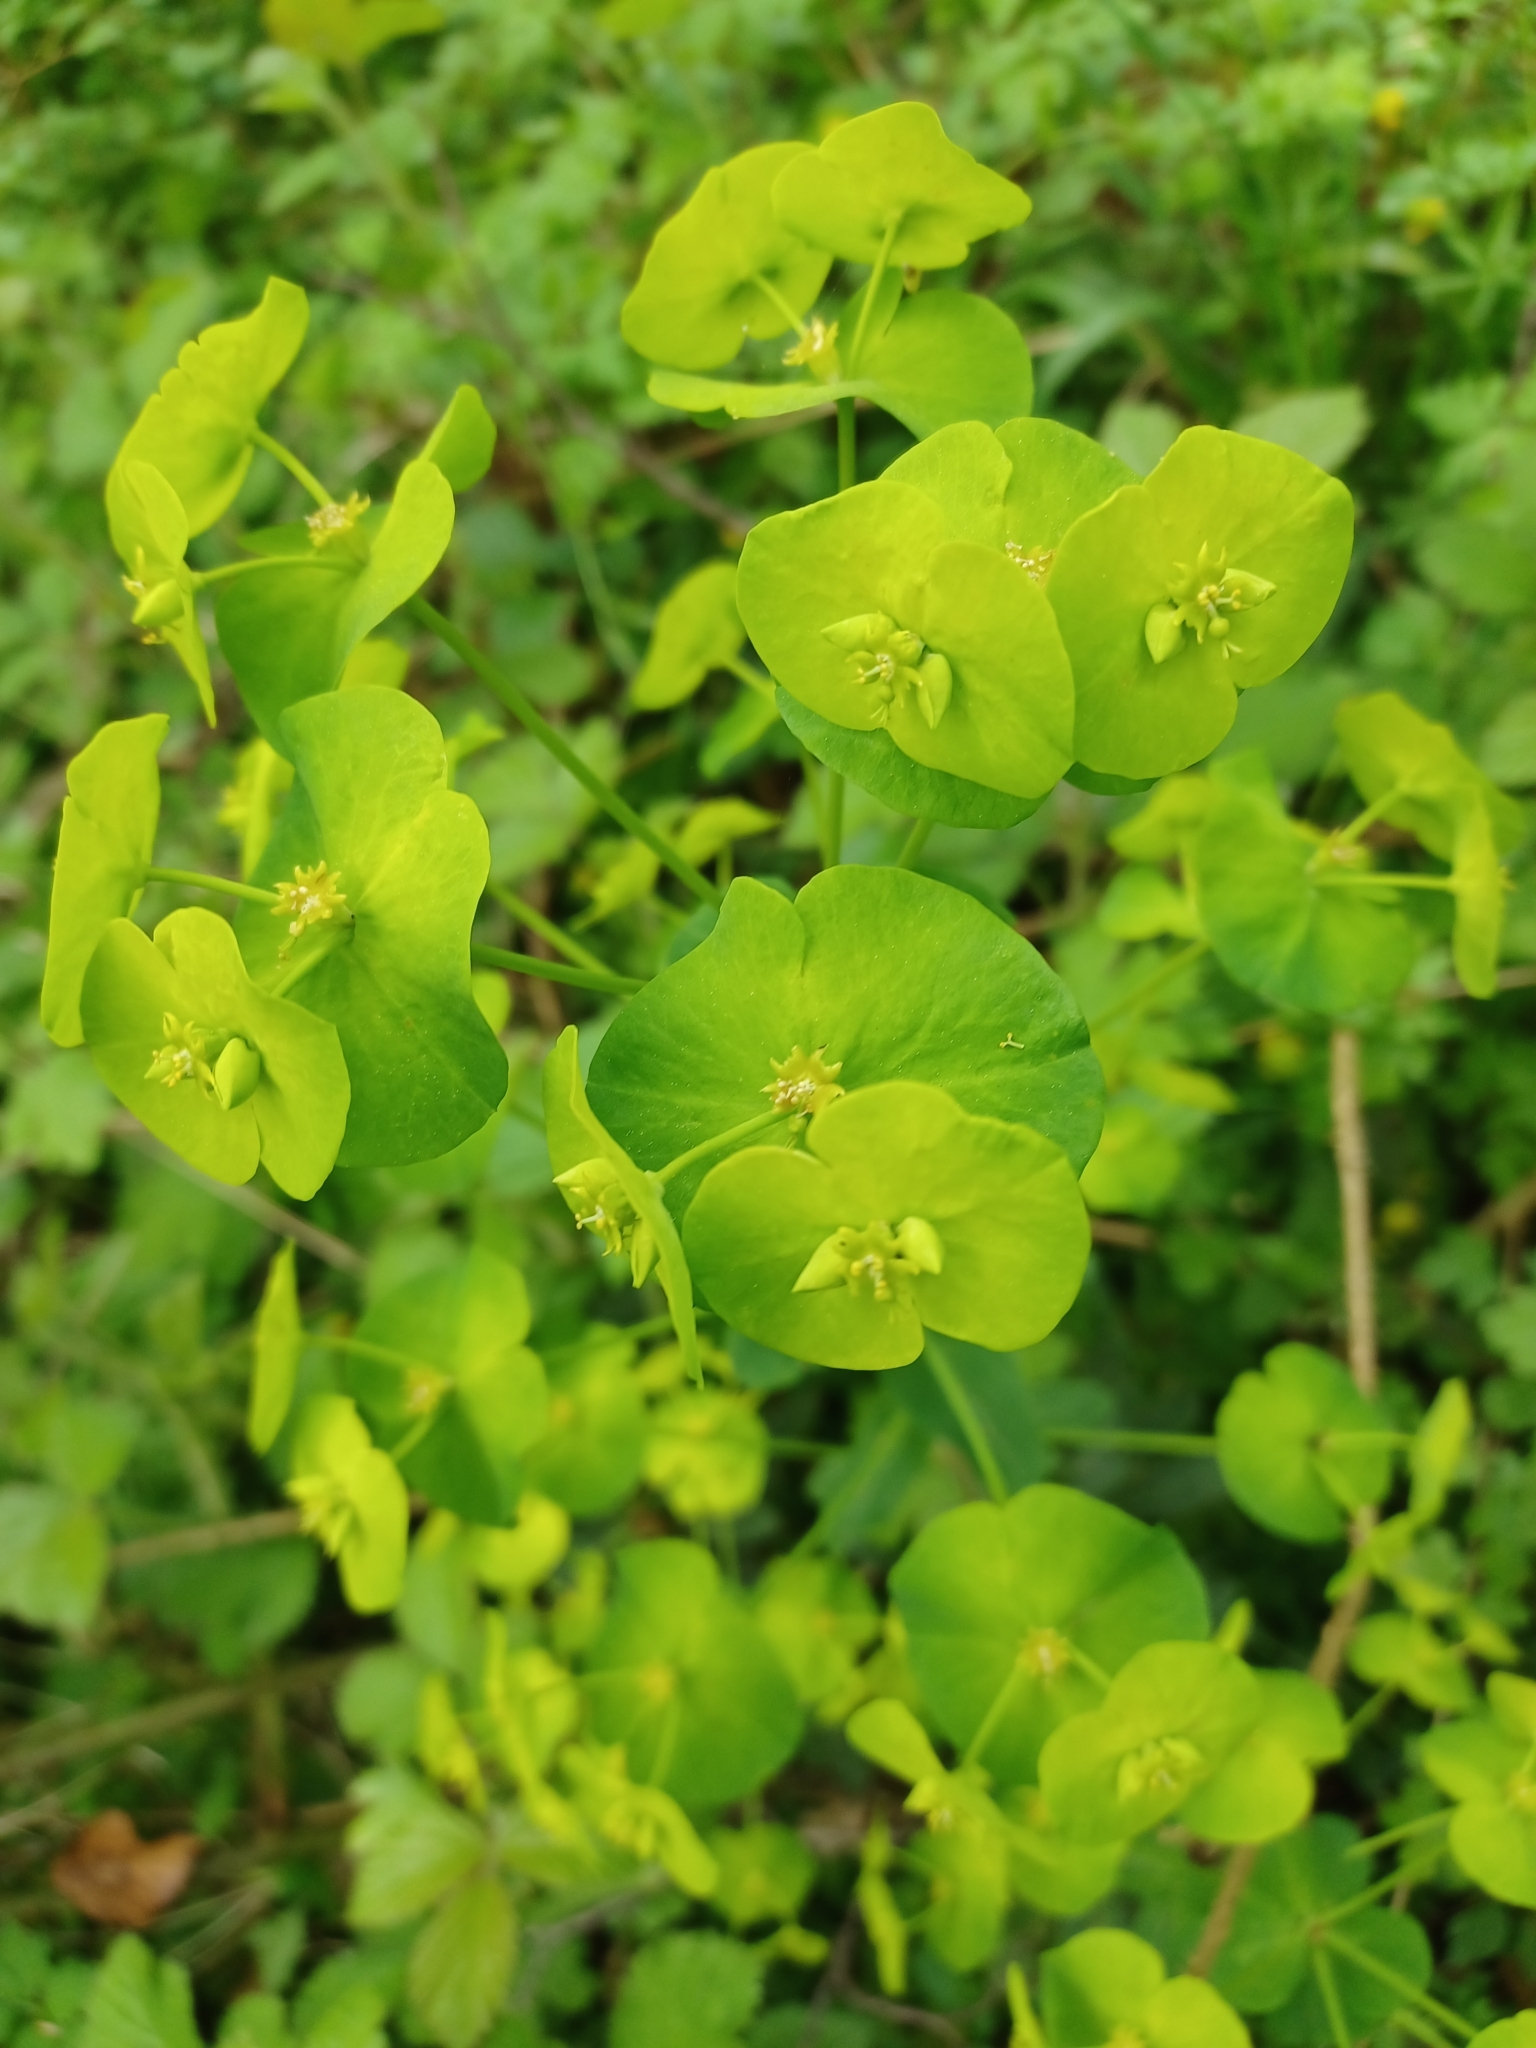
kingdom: Plantae
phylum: Tracheophyta
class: Magnoliopsida
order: Malpighiales
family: Euphorbiaceae
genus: Euphorbia
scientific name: Euphorbia amygdaloides
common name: Wood spurge
